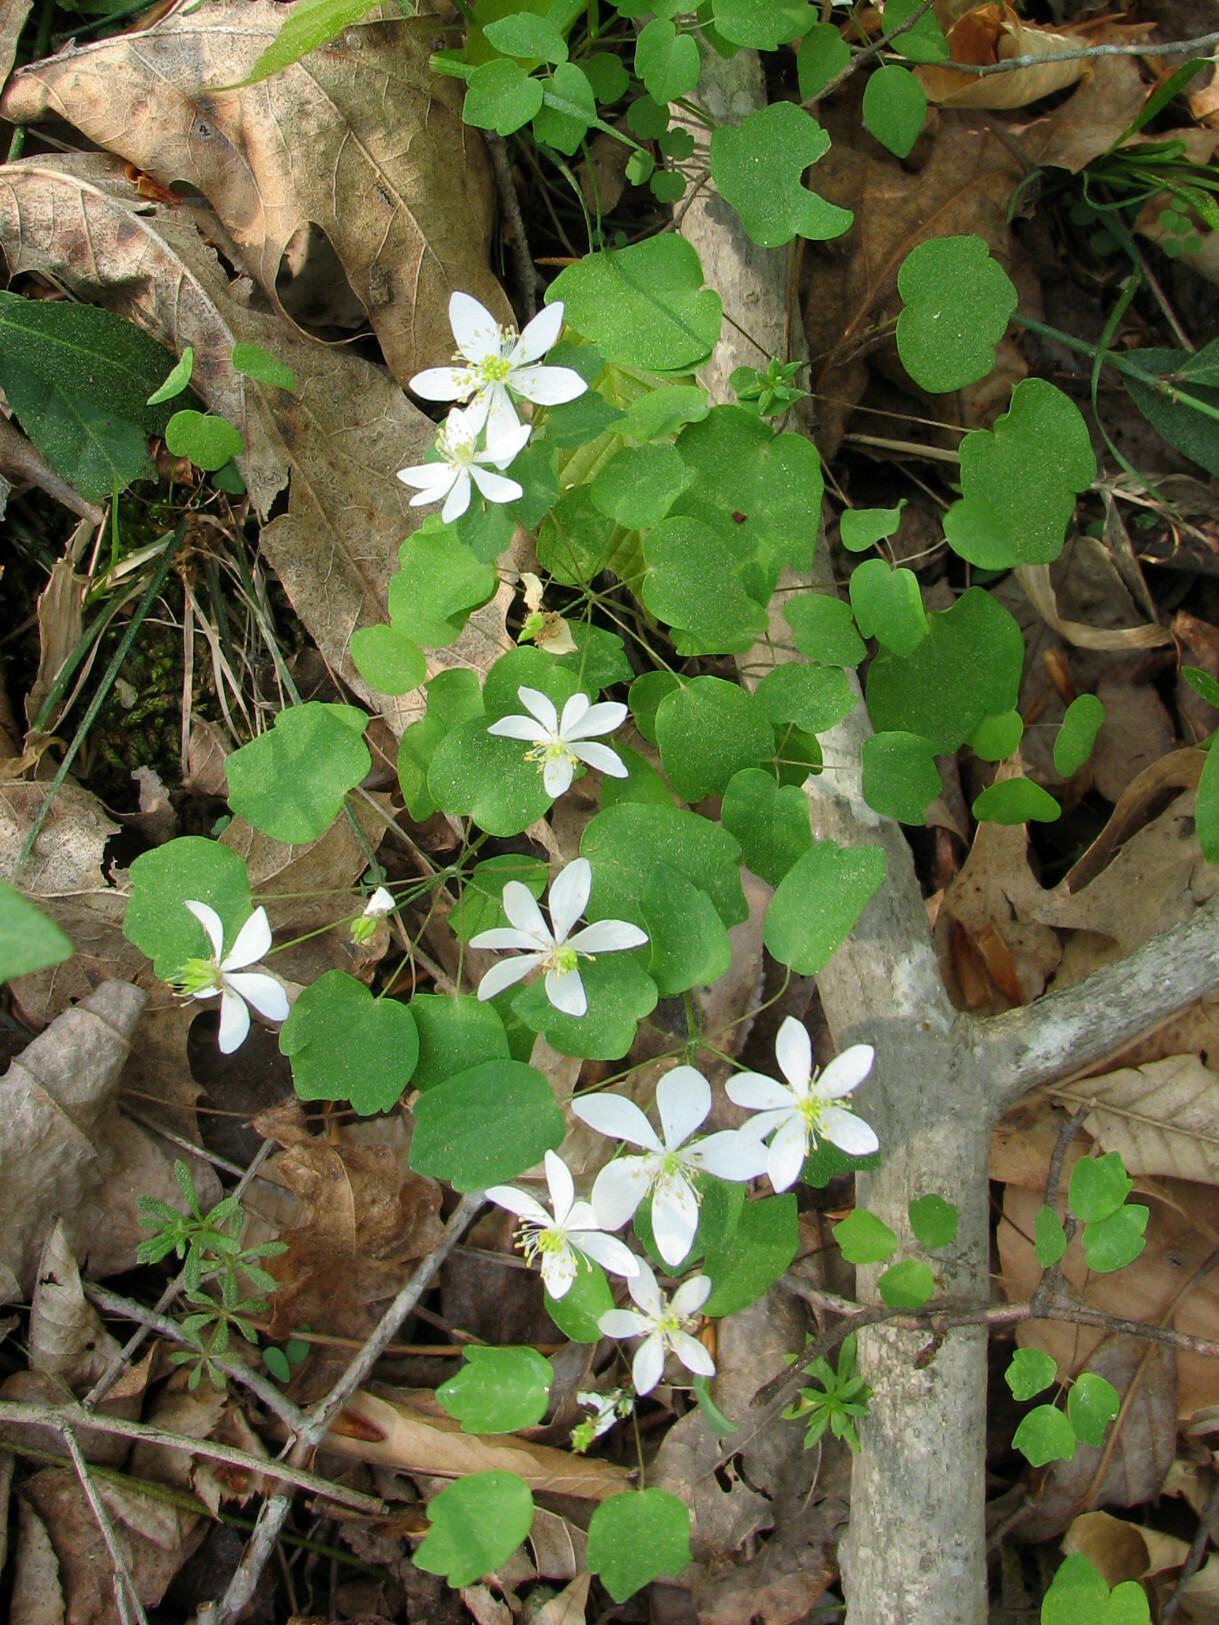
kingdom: Plantae
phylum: Tracheophyta
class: Magnoliopsida
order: Ranunculales
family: Ranunculaceae
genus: Thalictrum
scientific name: Thalictrum thalictroides
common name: Rue-anemone
